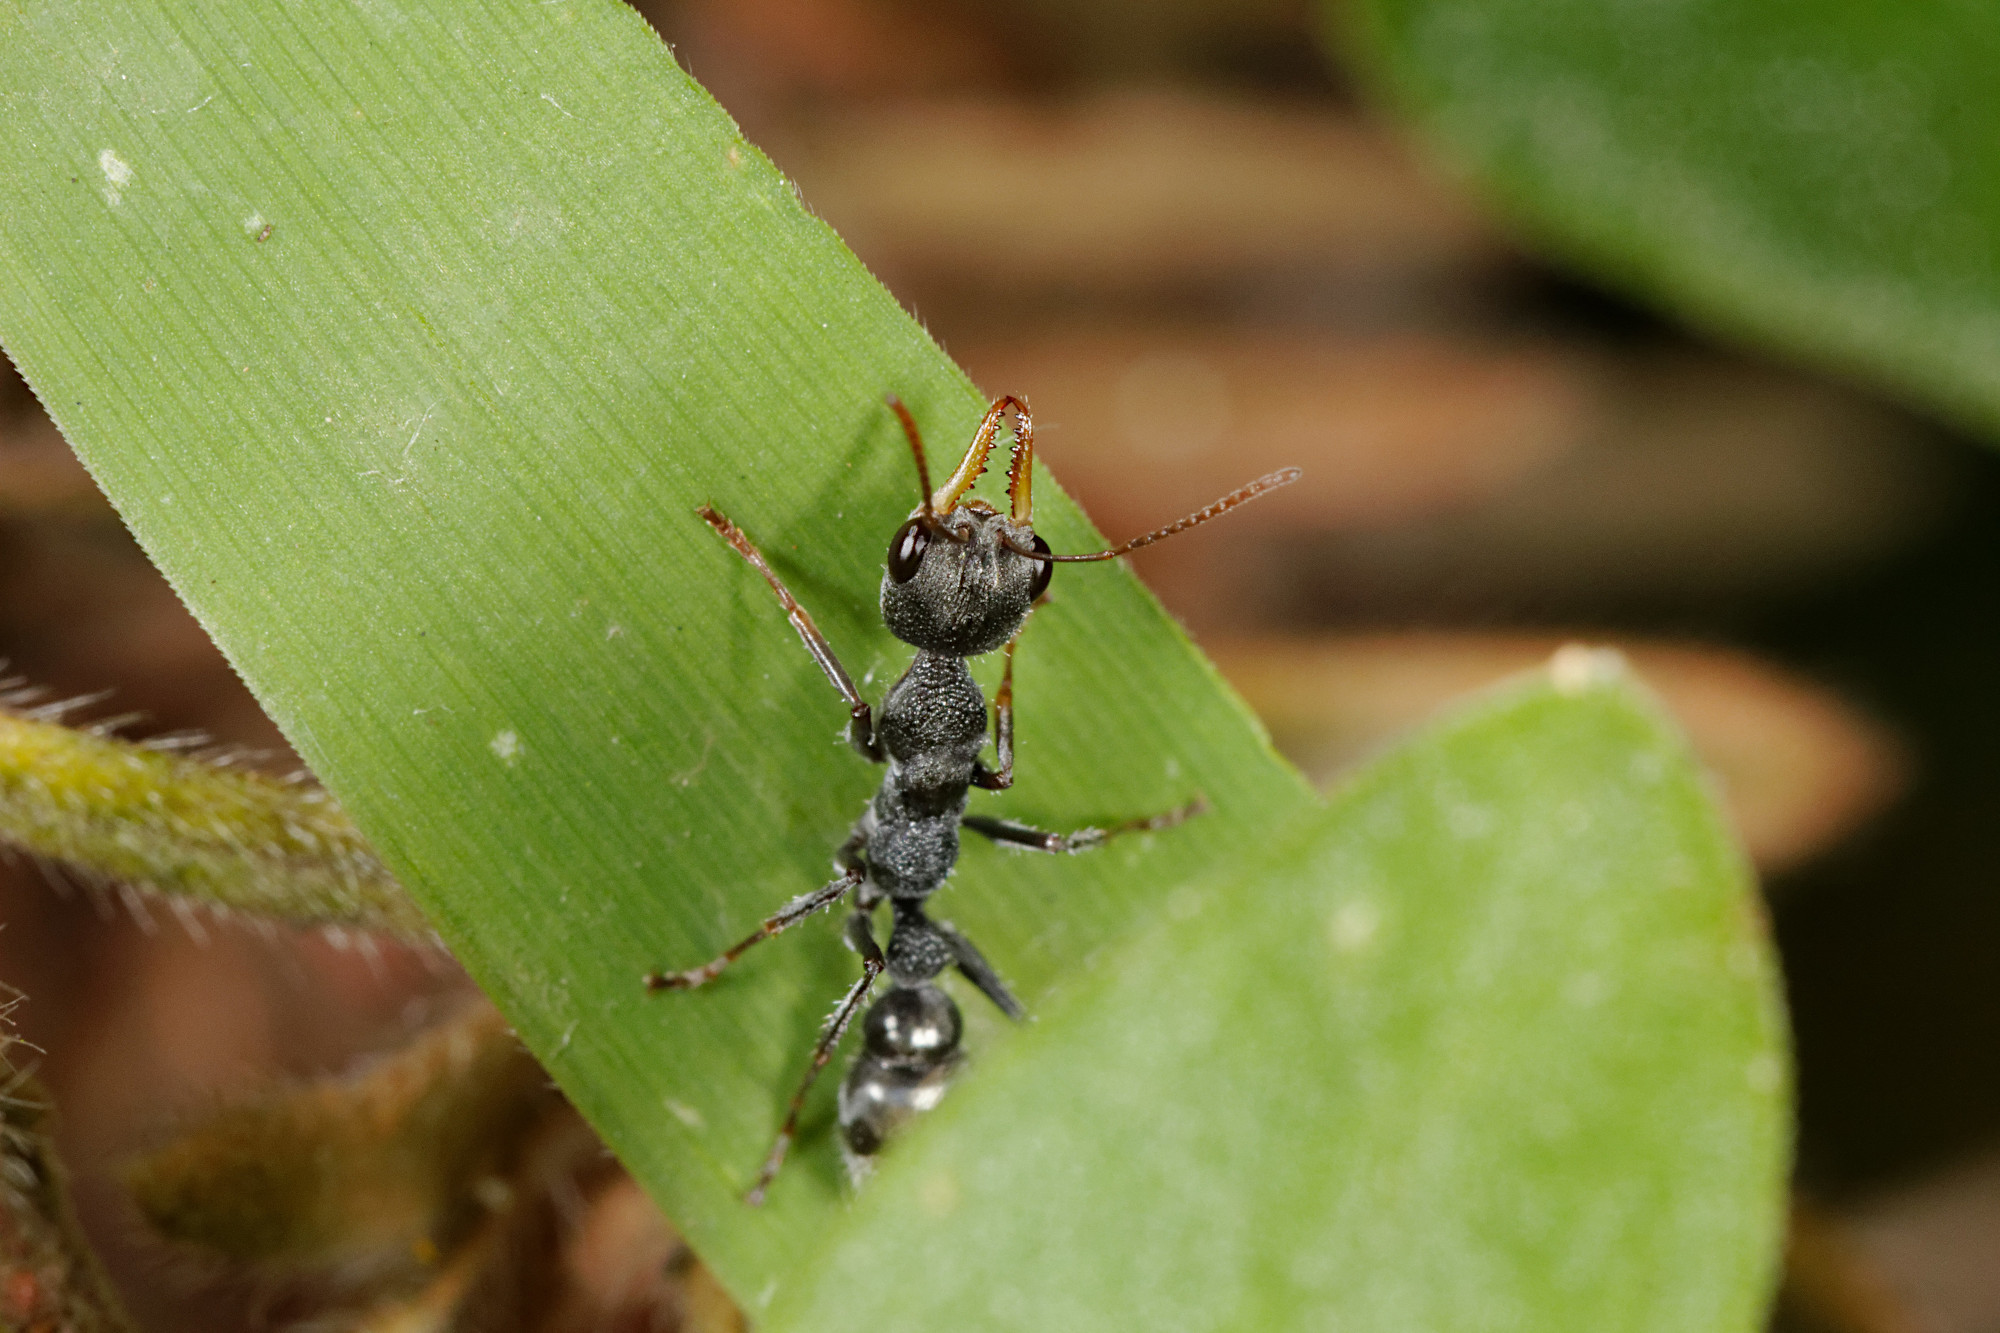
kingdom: Animalia
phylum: Arthropoda
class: Insecta
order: Hymenoptera
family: Formicidae
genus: Myrmecia
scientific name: Myrmecia urens
